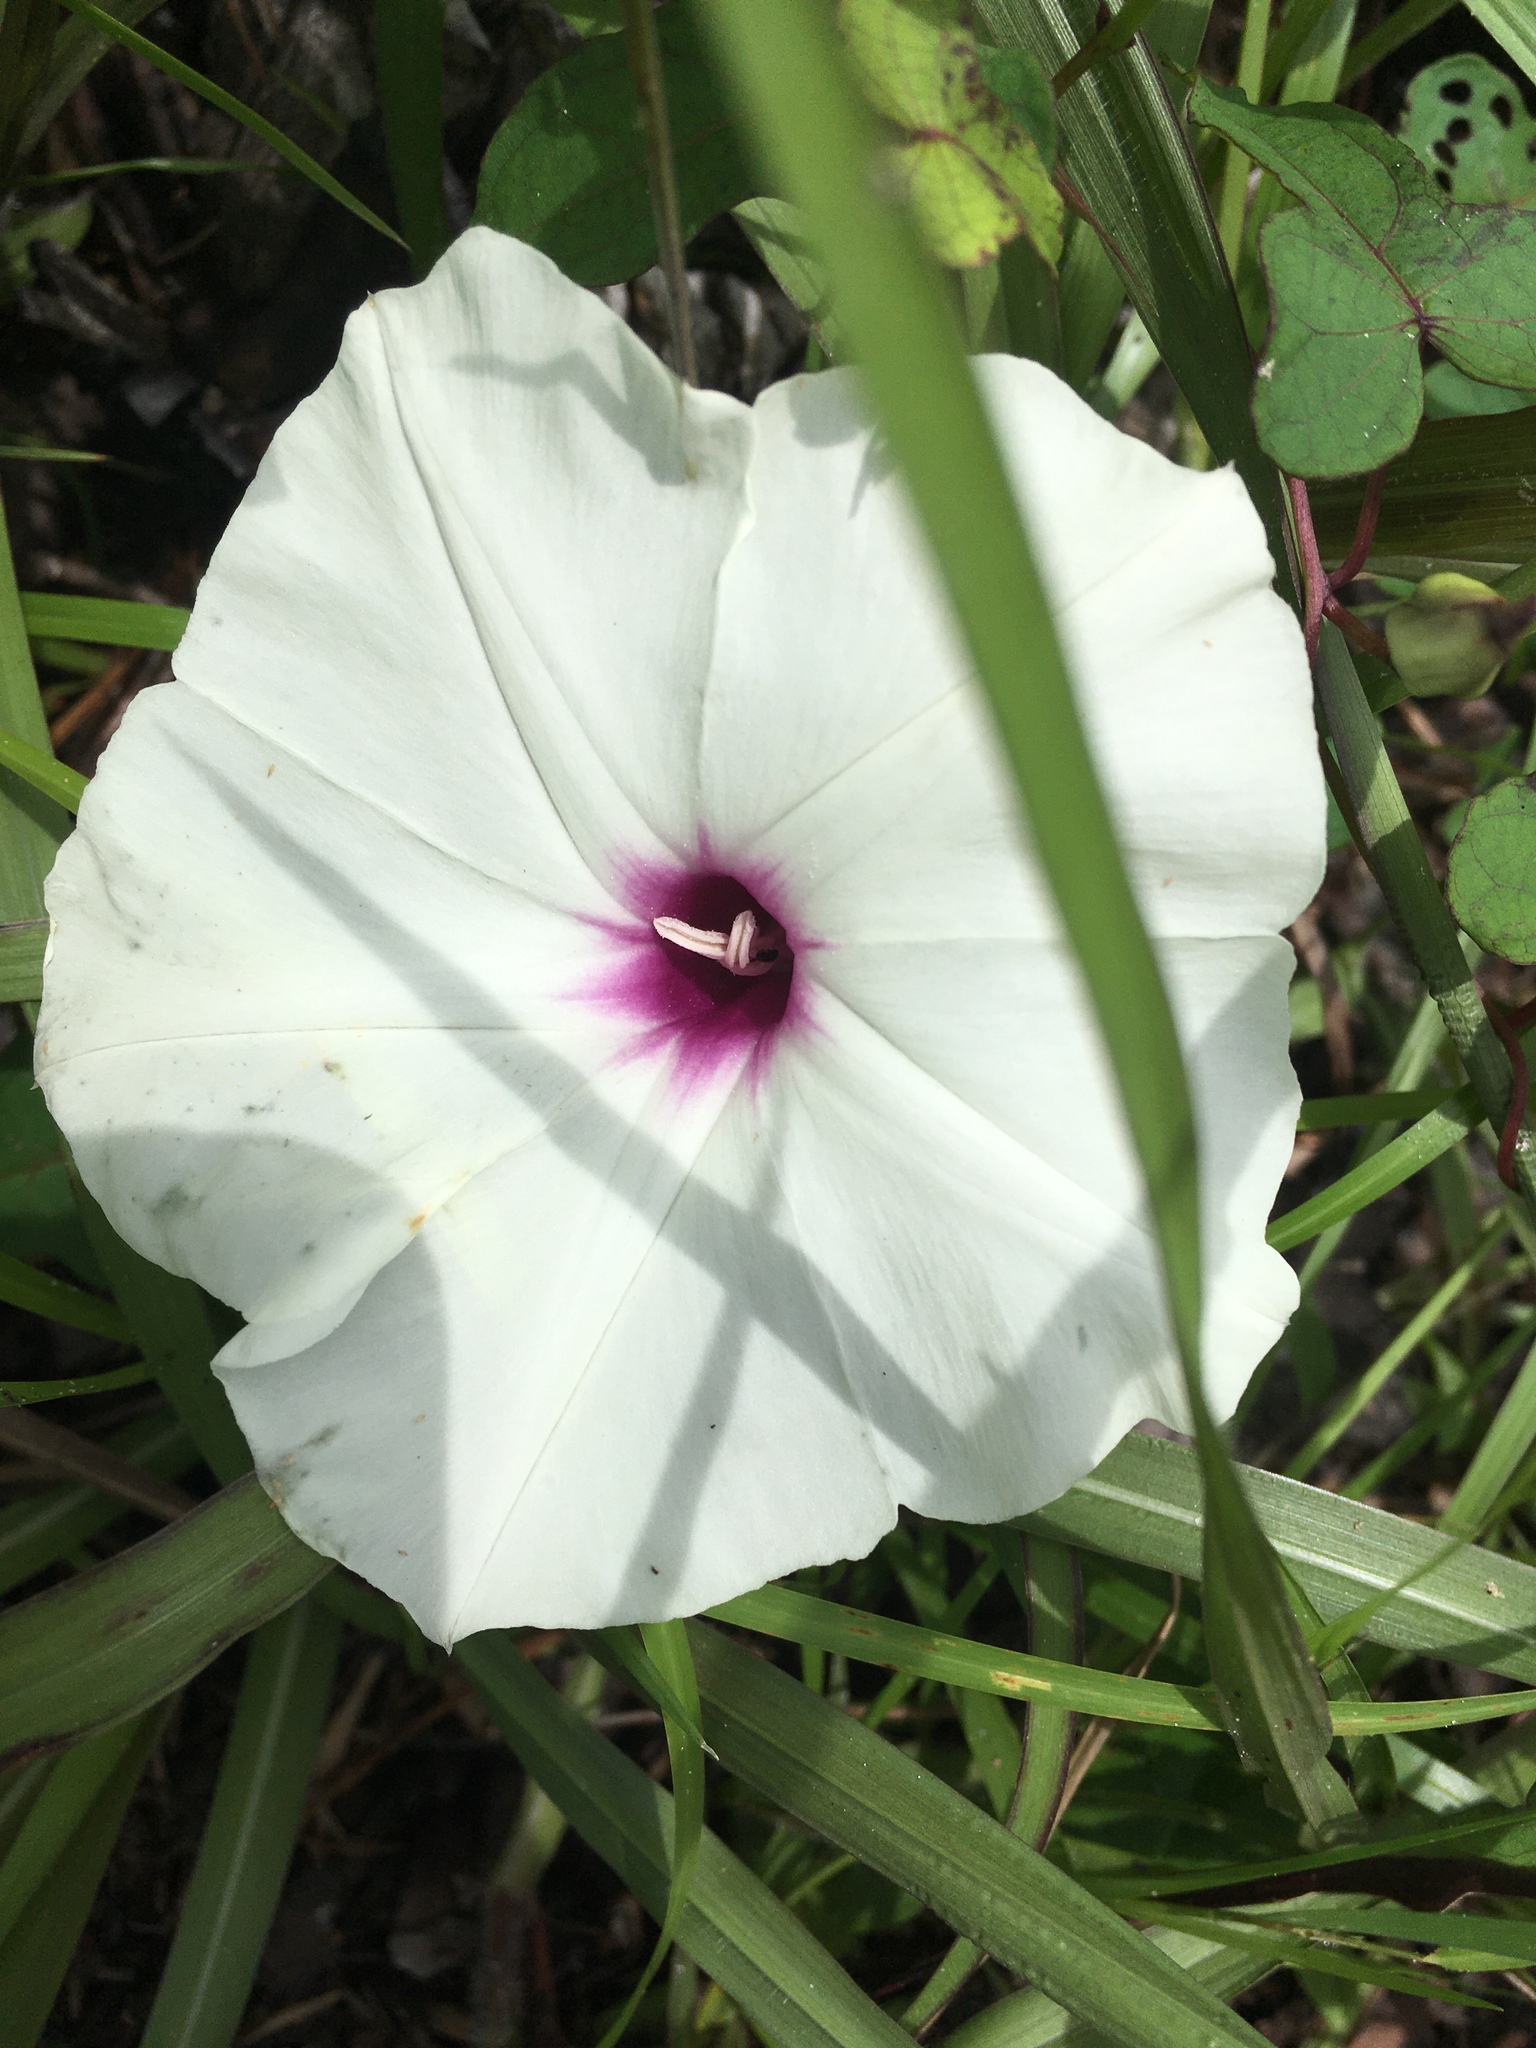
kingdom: Plantae
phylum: Tracheophyta
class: Magnoliopsida
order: Solanales
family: Convolvulaceae
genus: Ipomoea
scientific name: Ipomoea pandurata
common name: Man-of-the-earth
